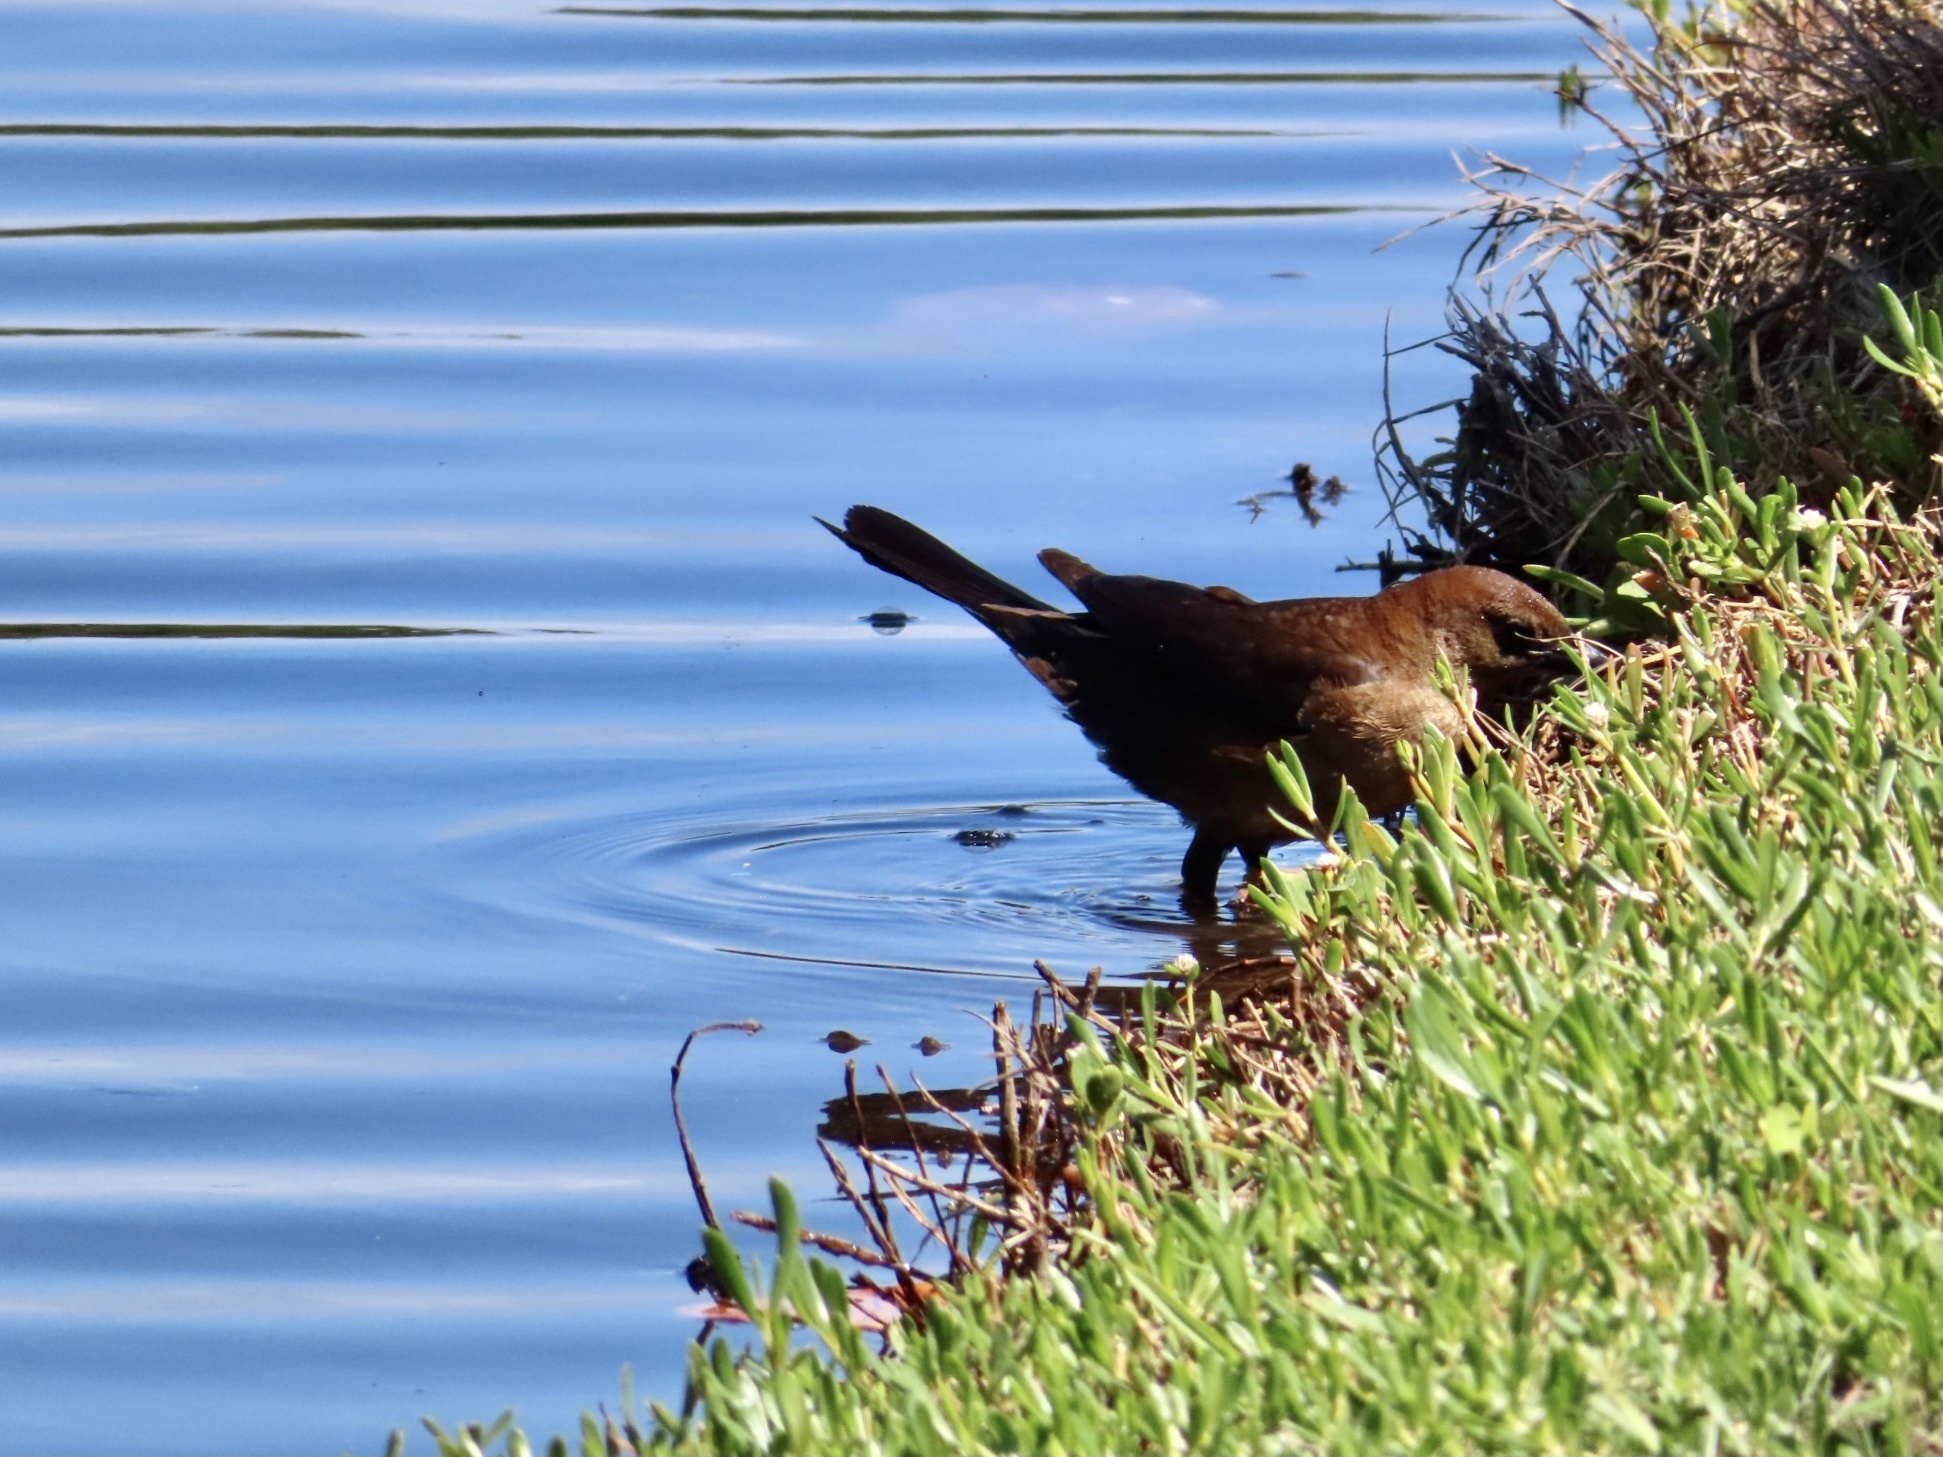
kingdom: Animalia
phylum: Chordata
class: Aves
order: Passeriformes
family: Icteridae
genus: Quiscalus
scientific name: Quiscalus major
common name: Boat-tailed grackle
